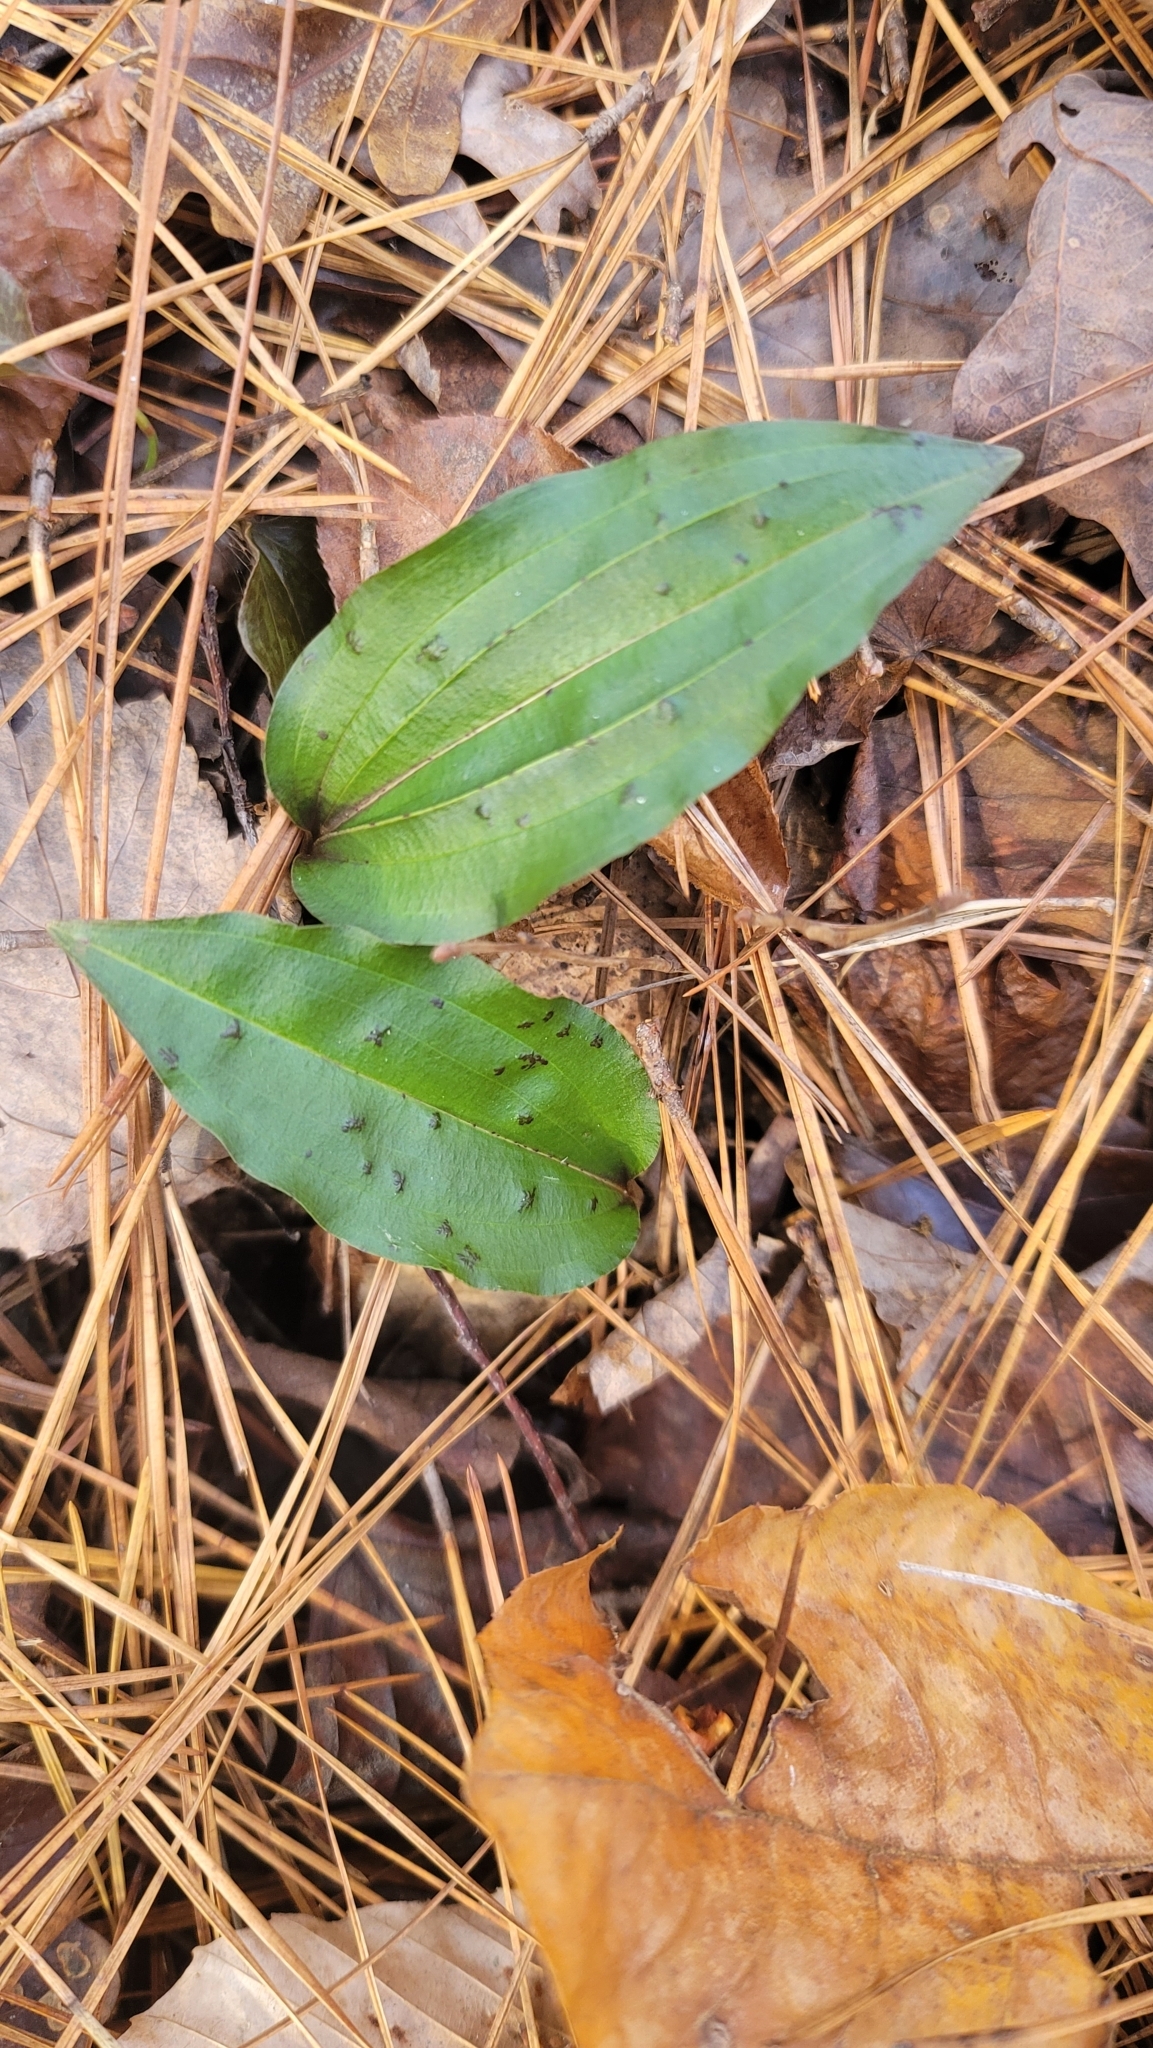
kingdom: Plantae
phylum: Tracheophyta
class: Liliopsida
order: Asparagales
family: Orchidaceae
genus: Tipularia
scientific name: Tipularia discolor
